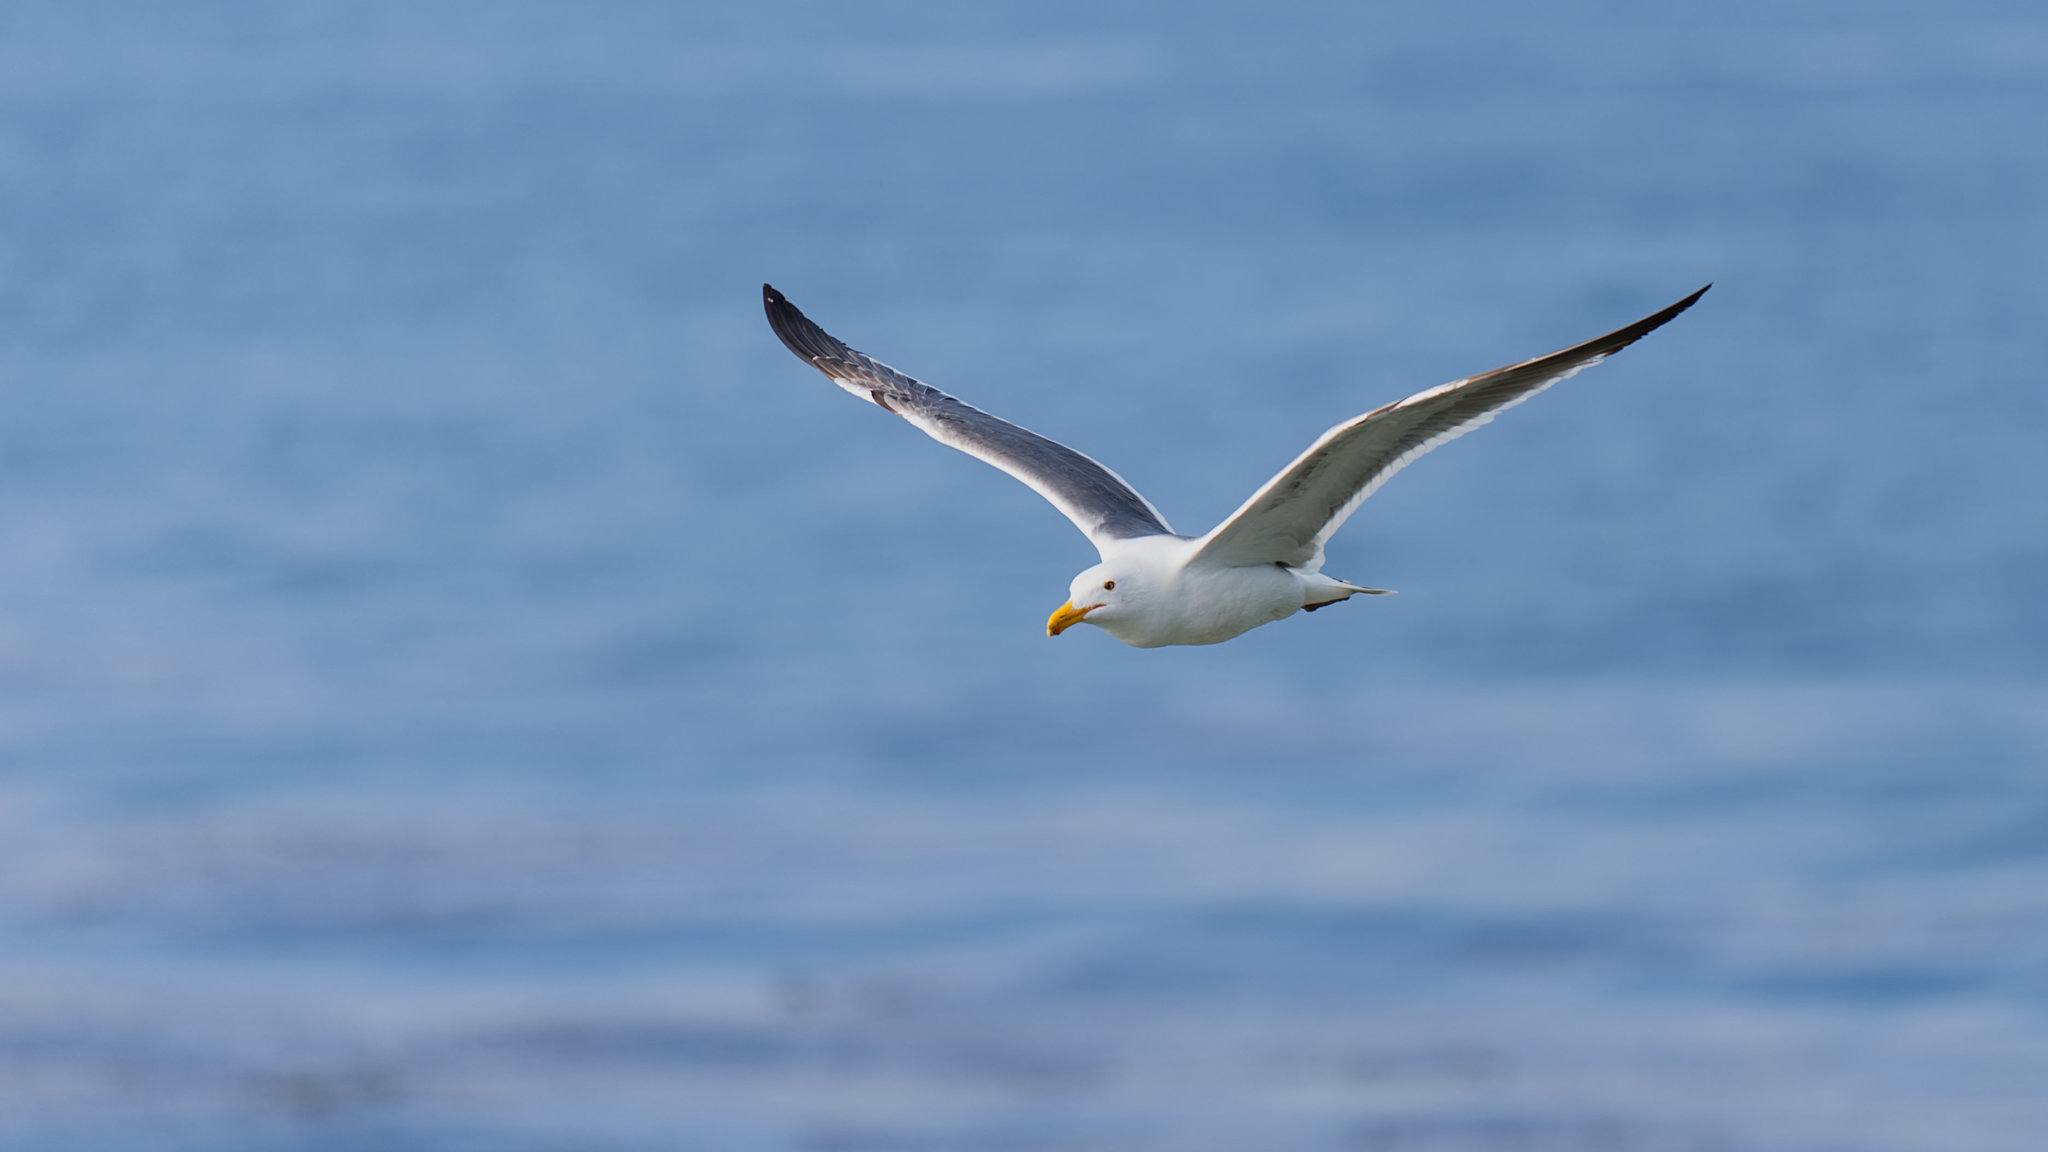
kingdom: Animalia
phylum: Chordata
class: Aves
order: Charadriiformes
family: Laridae
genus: Larus
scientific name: Larus occidentalis
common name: Western gull
